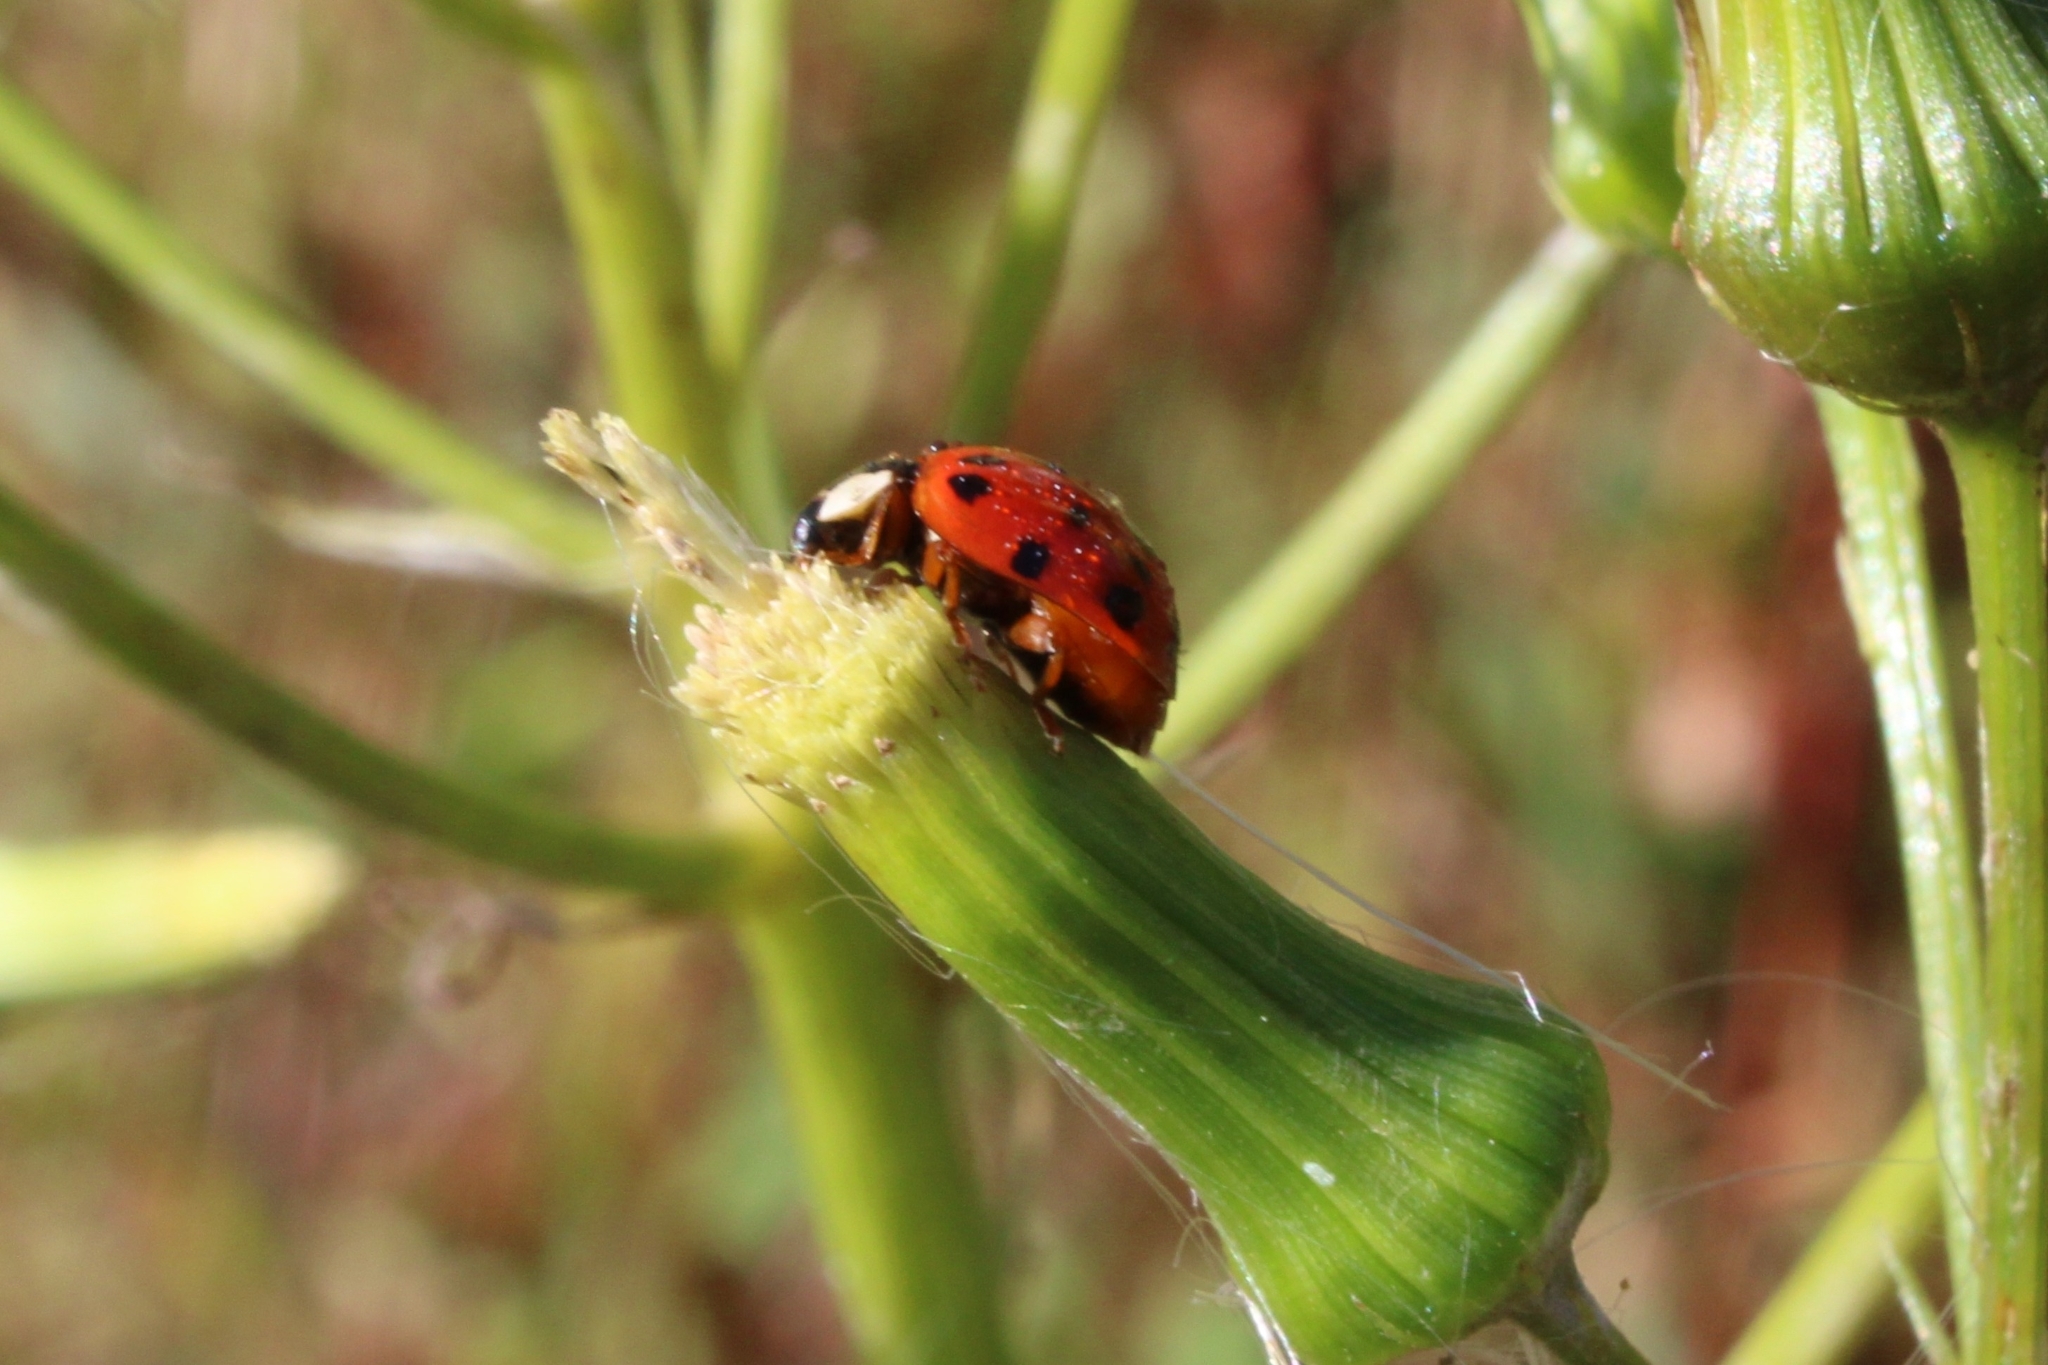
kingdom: Animalia
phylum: Arthropoda
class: Insecta
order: Coleoptera
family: Coccinellidae
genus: Harmonia
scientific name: Harmonia axyridis
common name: Harlequin ladybird
